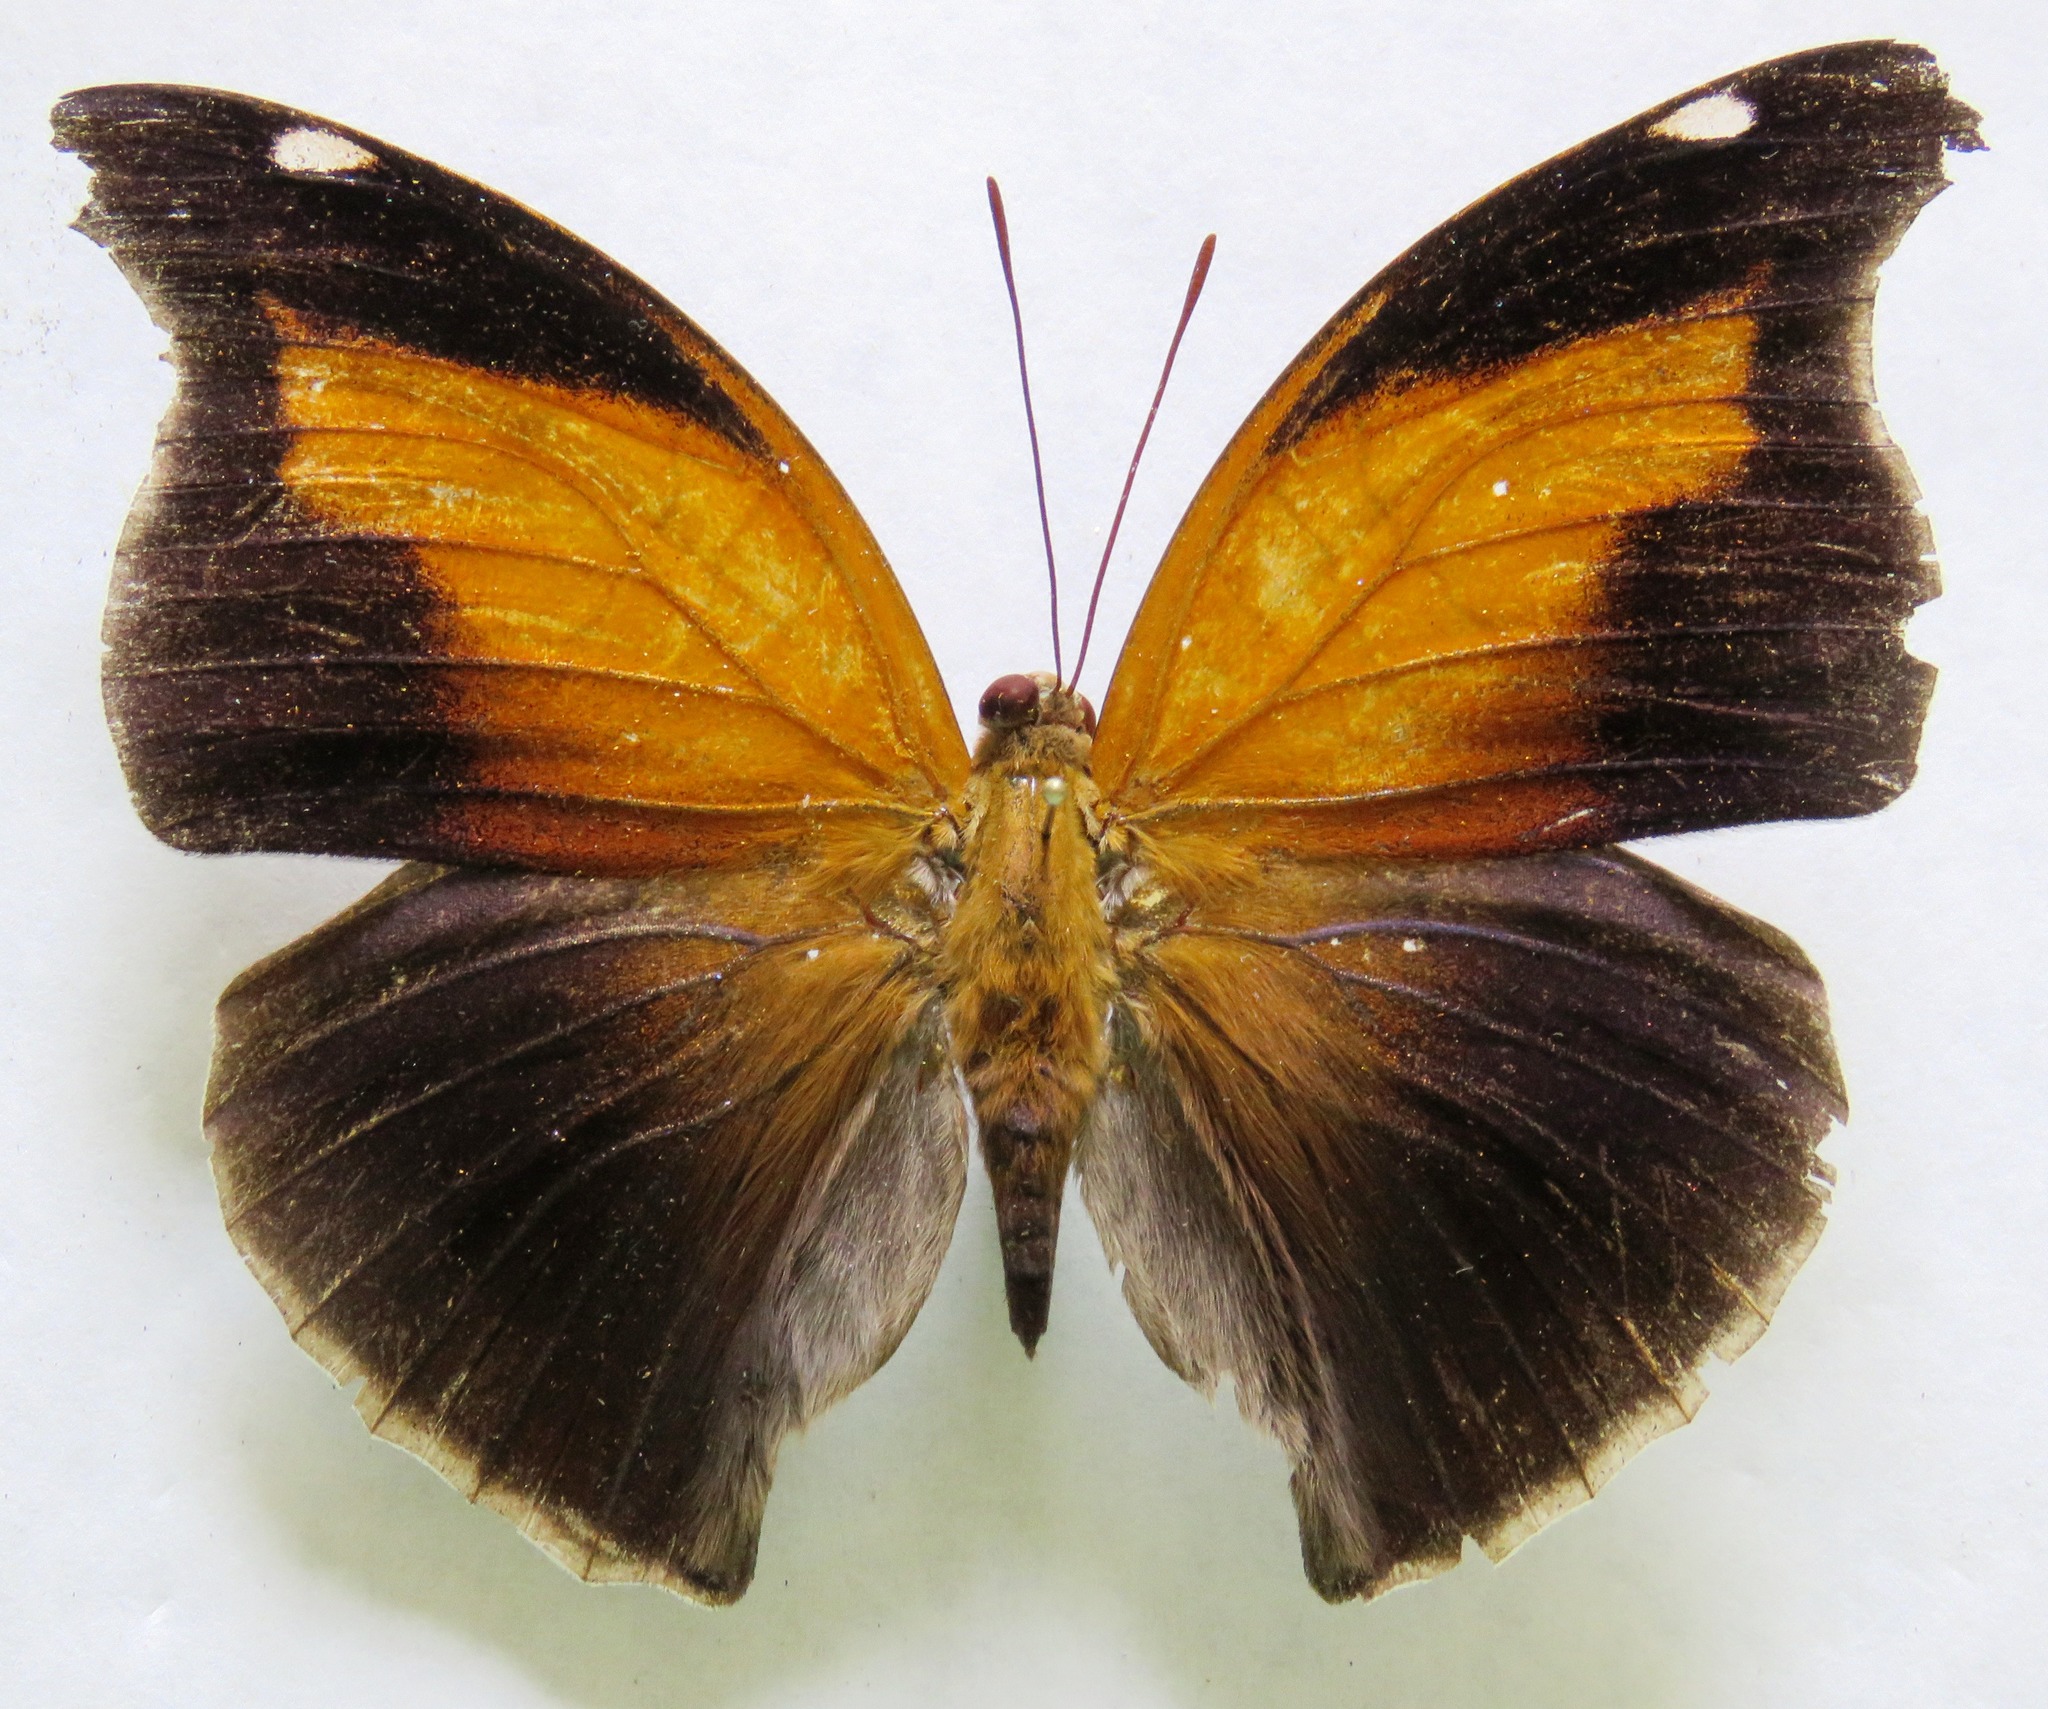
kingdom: Animalia
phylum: Arthropoda
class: Insecta
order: Lepidoptera
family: Nymphalidae
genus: Historis
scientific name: Historis odius
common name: Orion cecropian
